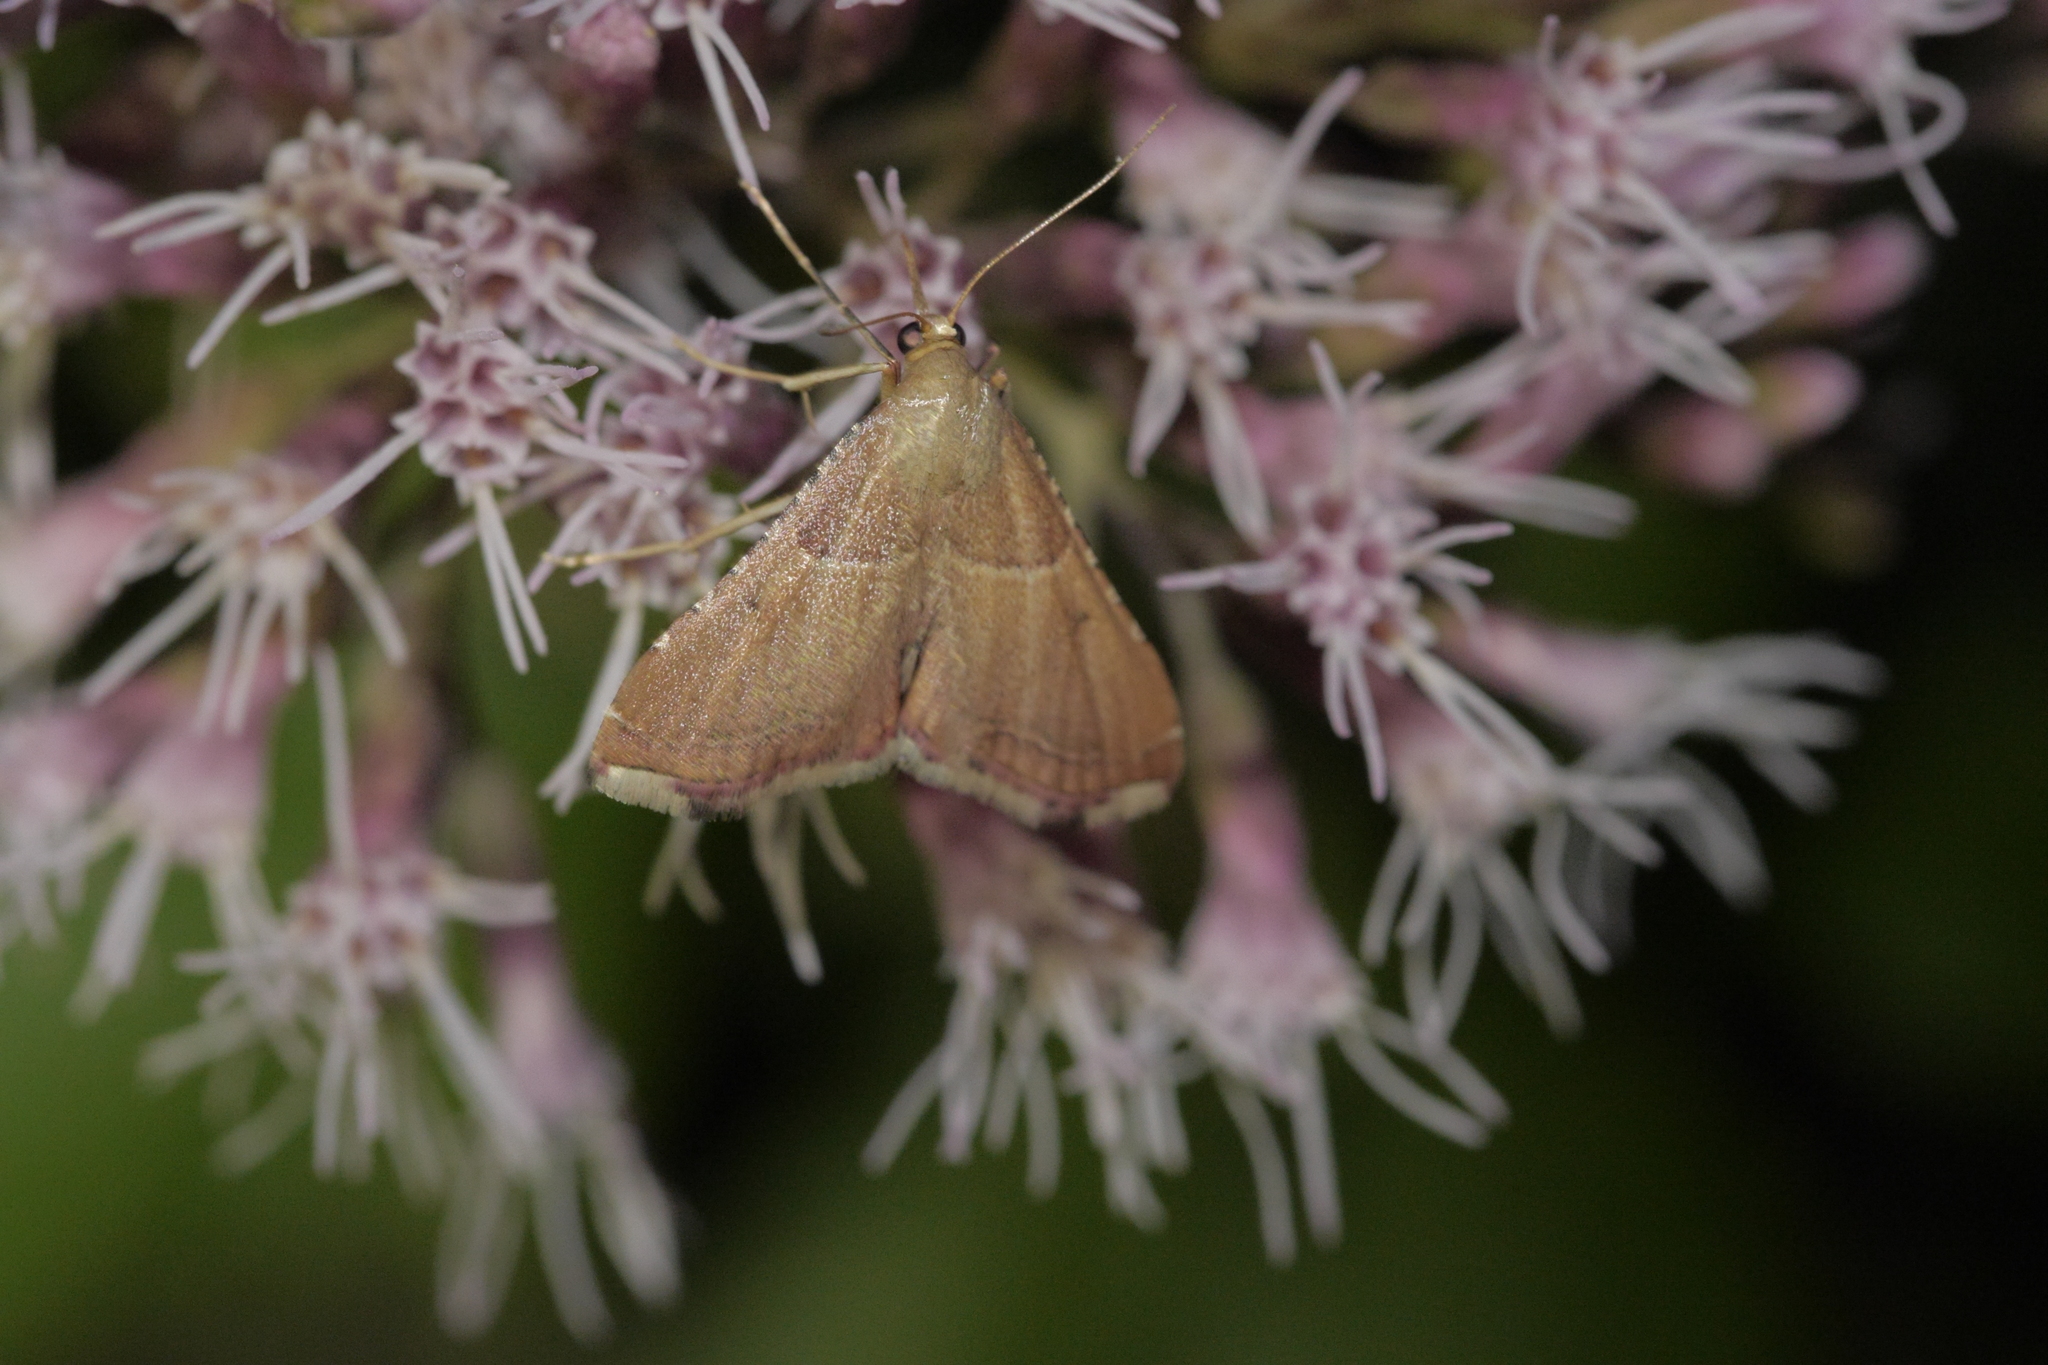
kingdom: Animalia
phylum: Arthropoda
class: Insecta
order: Lepidoptera
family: Pyralidae
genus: Endotricha
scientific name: Endotricha flammealis
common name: Rosy tabby
